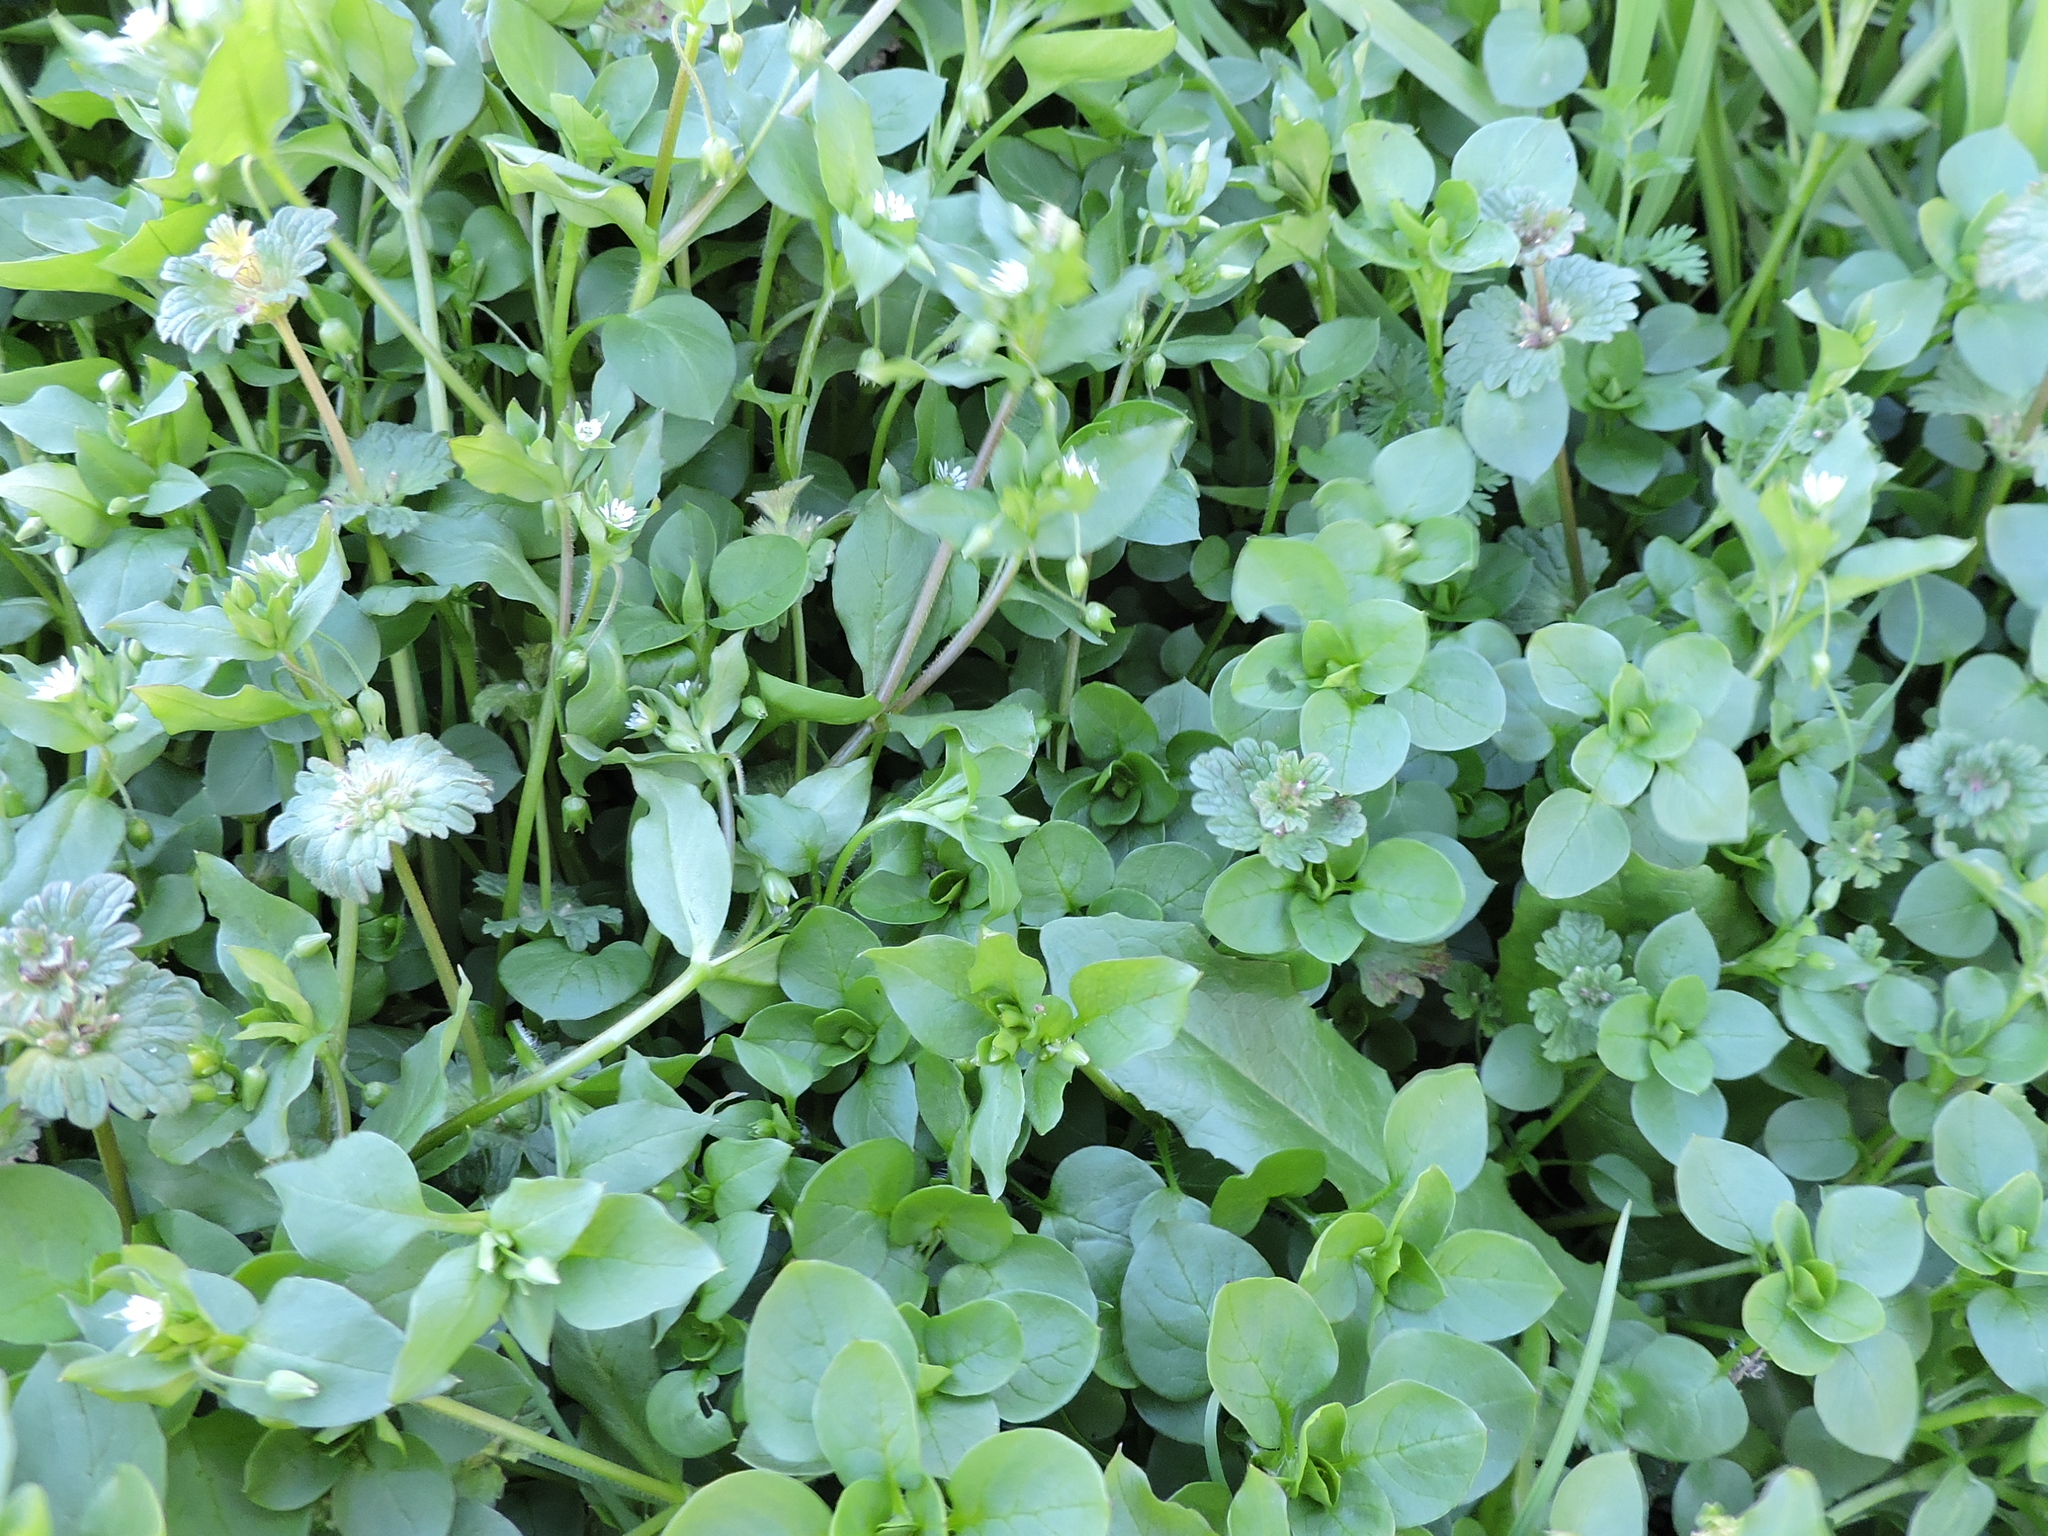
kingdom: Plantae
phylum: Tracheophyta
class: Magnoliopsida
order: Caryophyllales
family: Caryophyllaceae
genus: Stellaria
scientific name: Stellaria media
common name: Common chickweed
